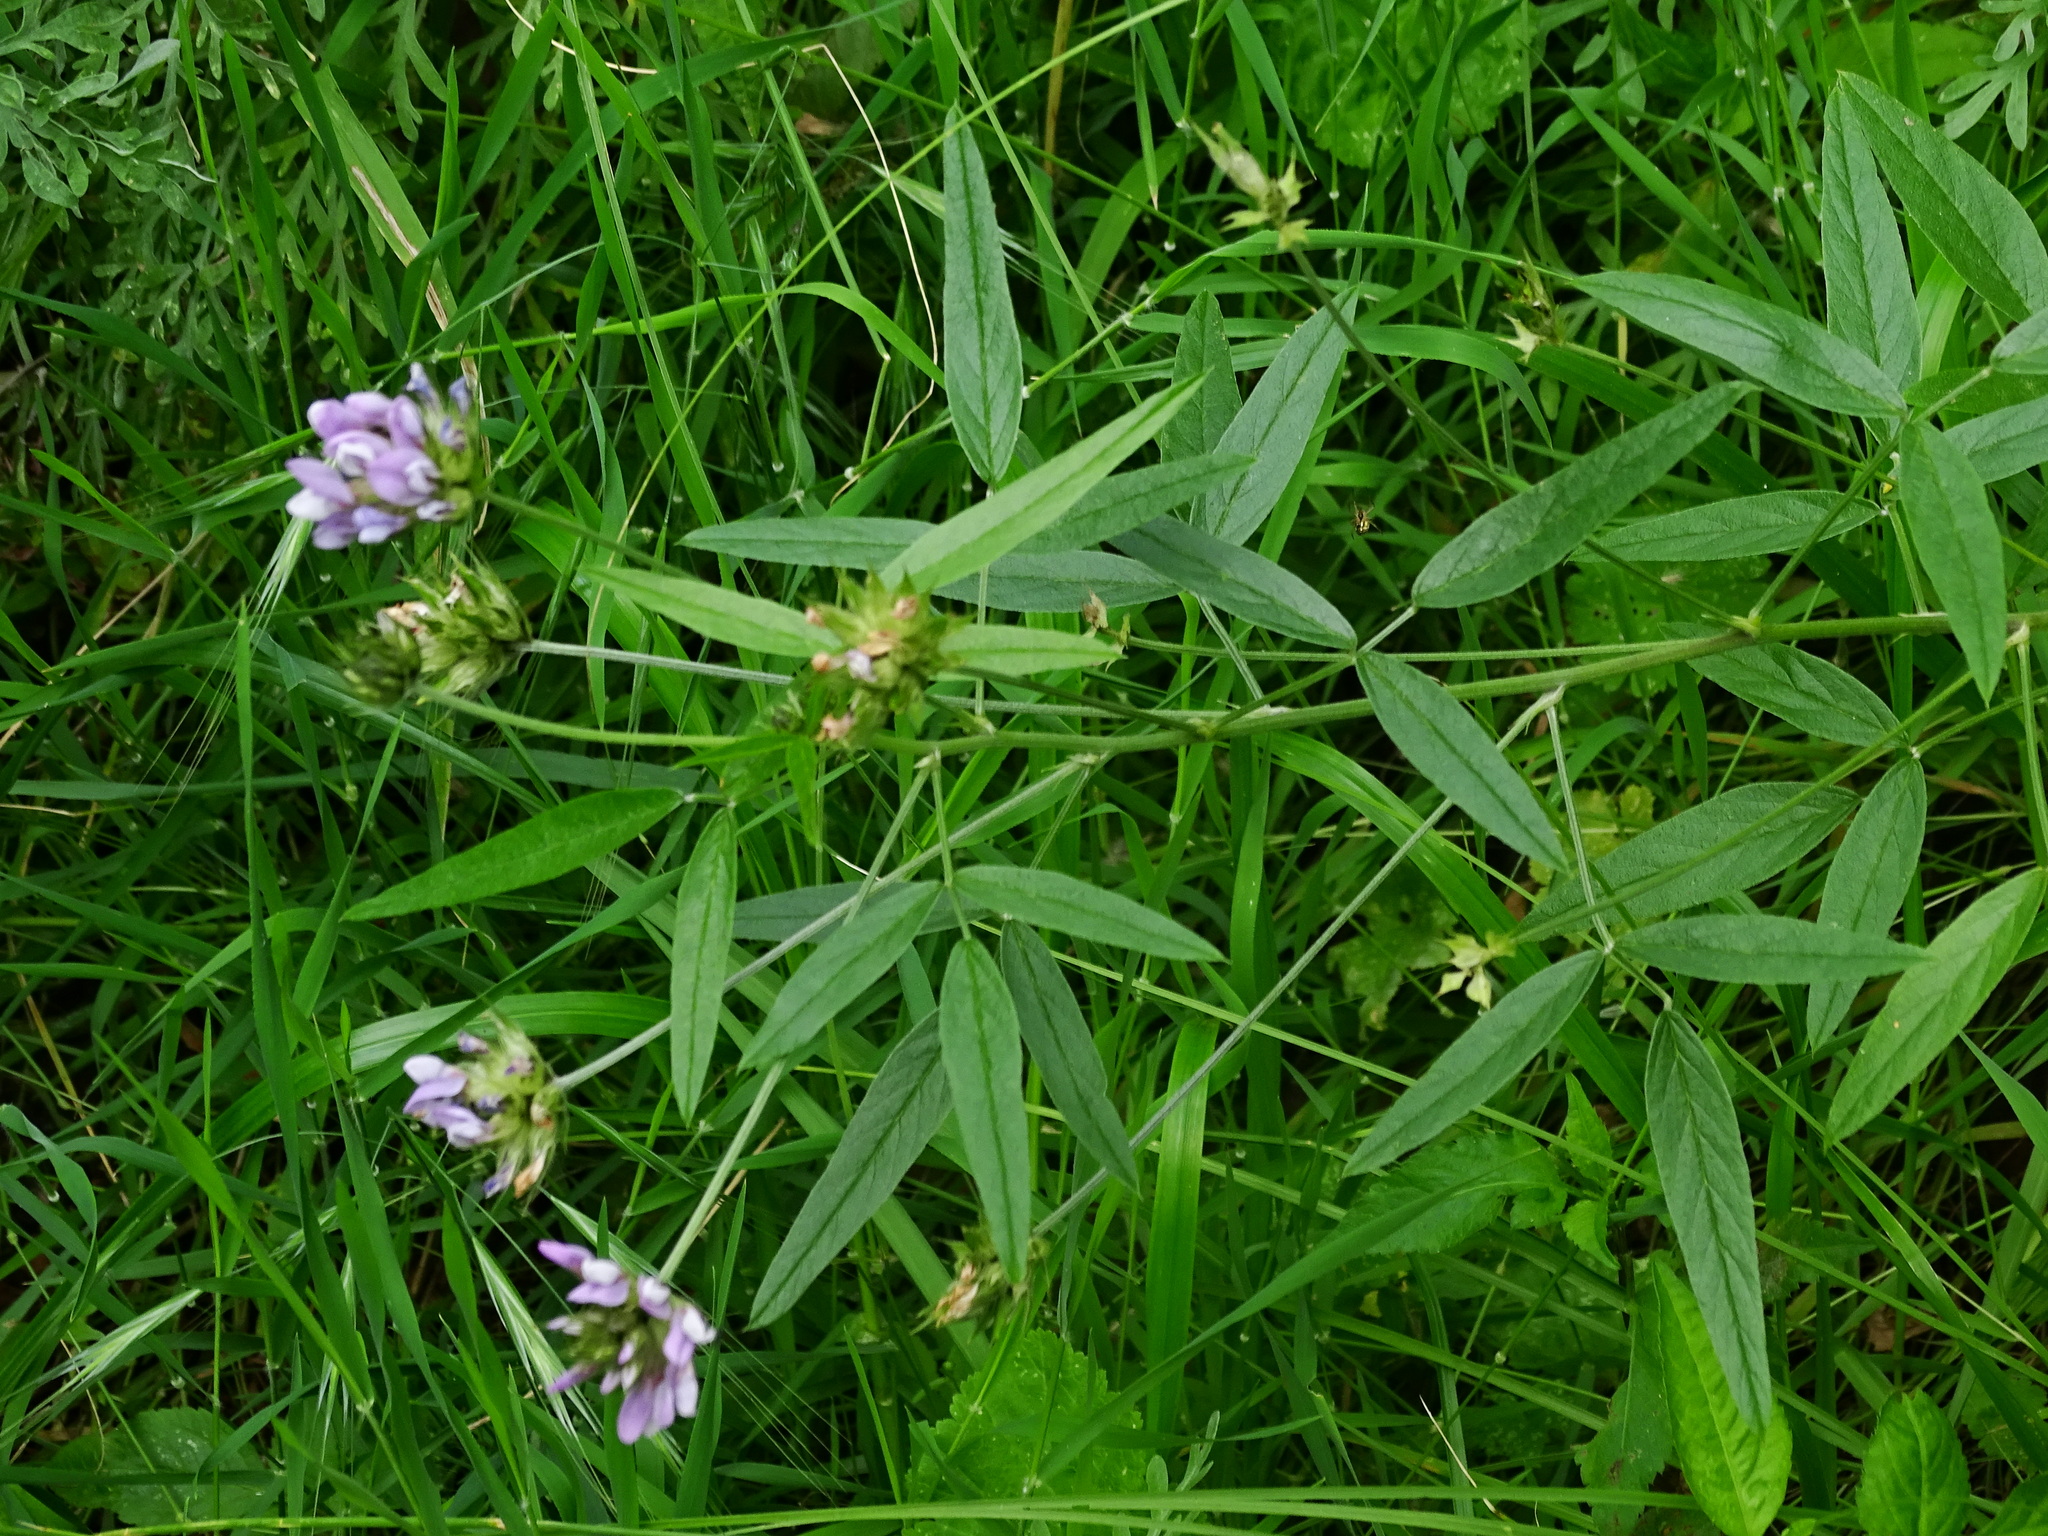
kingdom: Plantae
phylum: Tracheophyta
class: Magnoliopsida
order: Fabales
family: Fabaceae
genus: Bituminaria
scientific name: Bituminaria bituminosa
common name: Arabian pea
